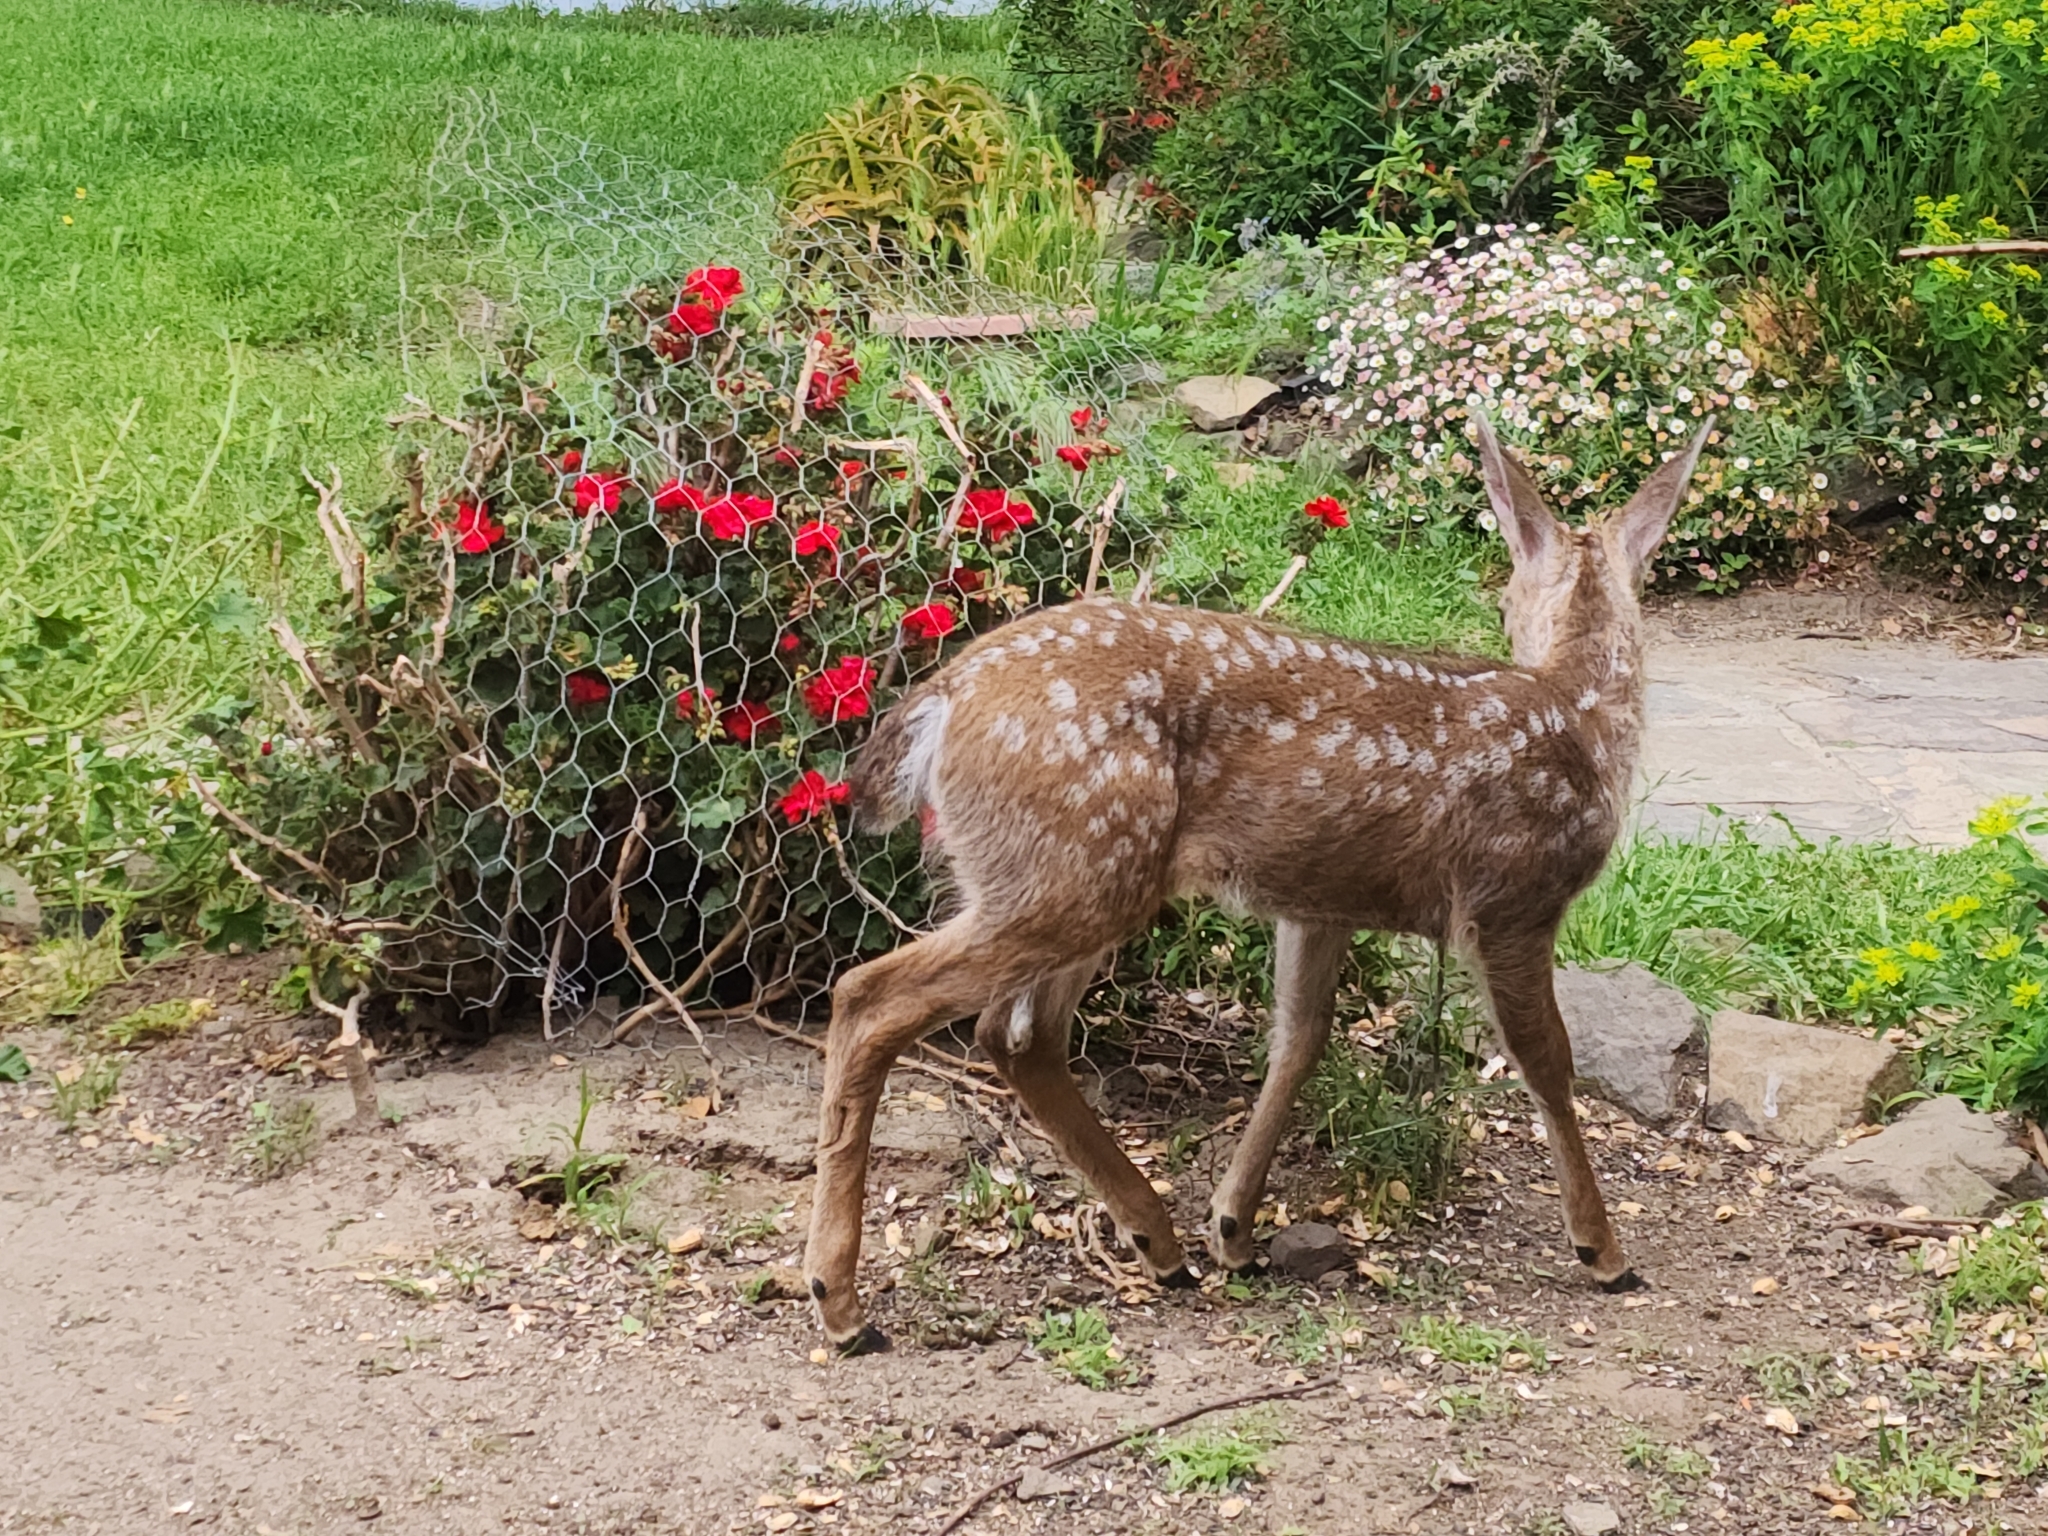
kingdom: Animalia
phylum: Chordata
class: Mammalia
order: Artiodactyla
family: Cervidae
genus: Odocoileus
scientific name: Odocoileus hemionus
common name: Mule deer
